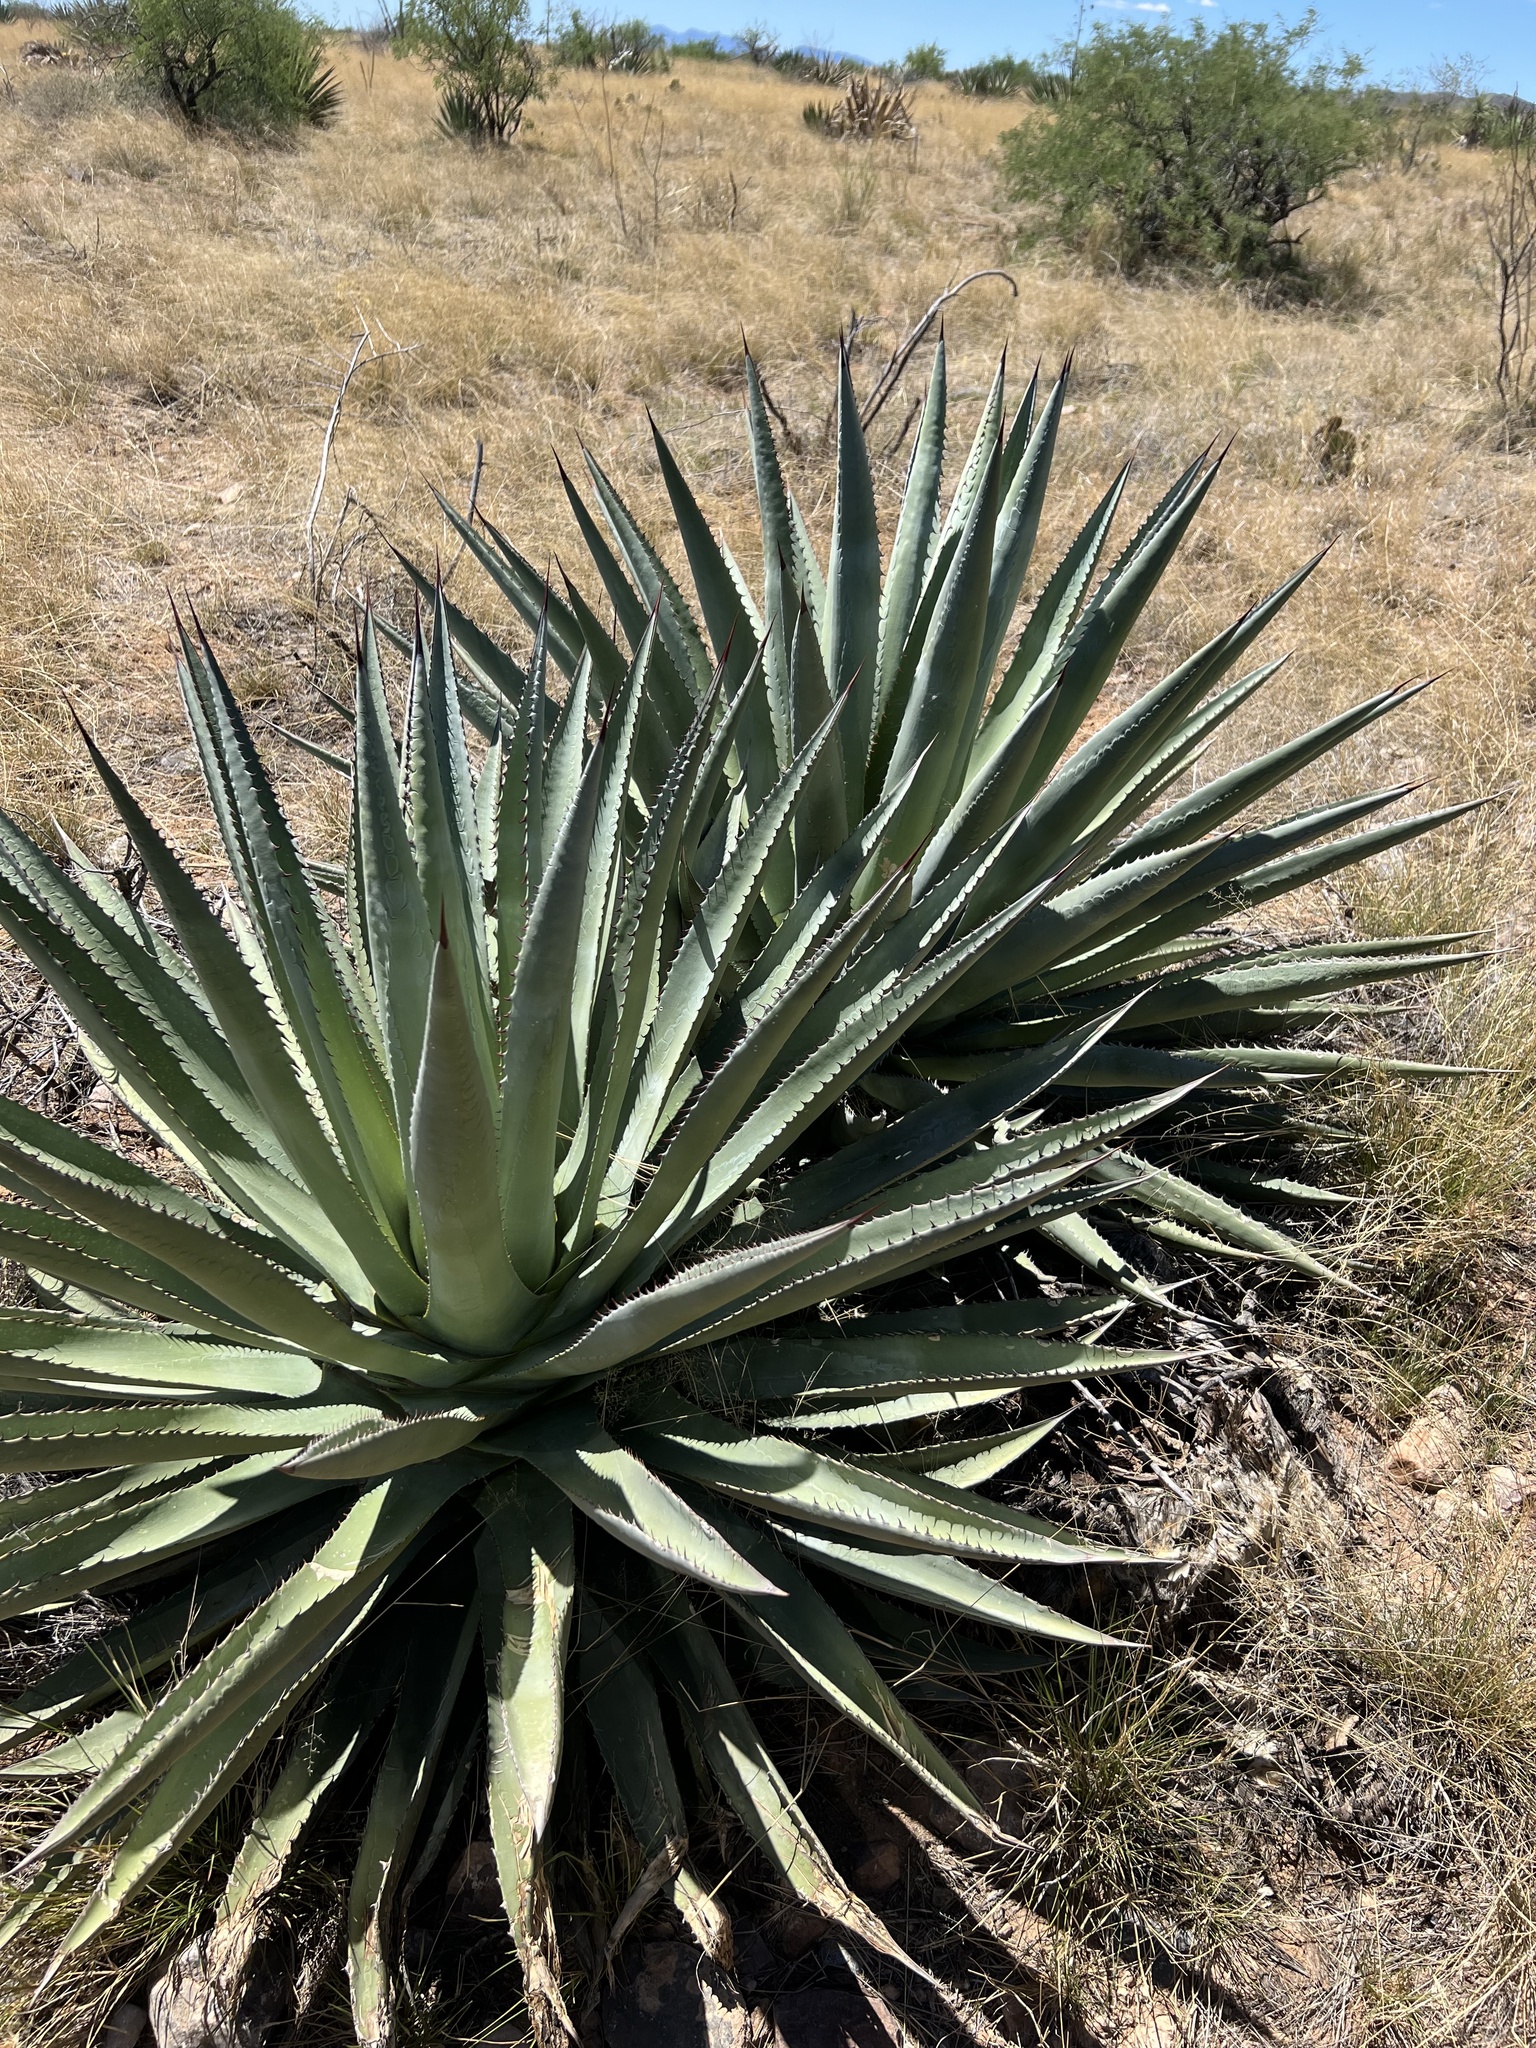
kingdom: Plantae
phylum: Tracheophyta
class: Liliopsida
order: Asparagales
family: Asparagaceae
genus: Agave
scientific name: Agave palmeri
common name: Palmer agave
